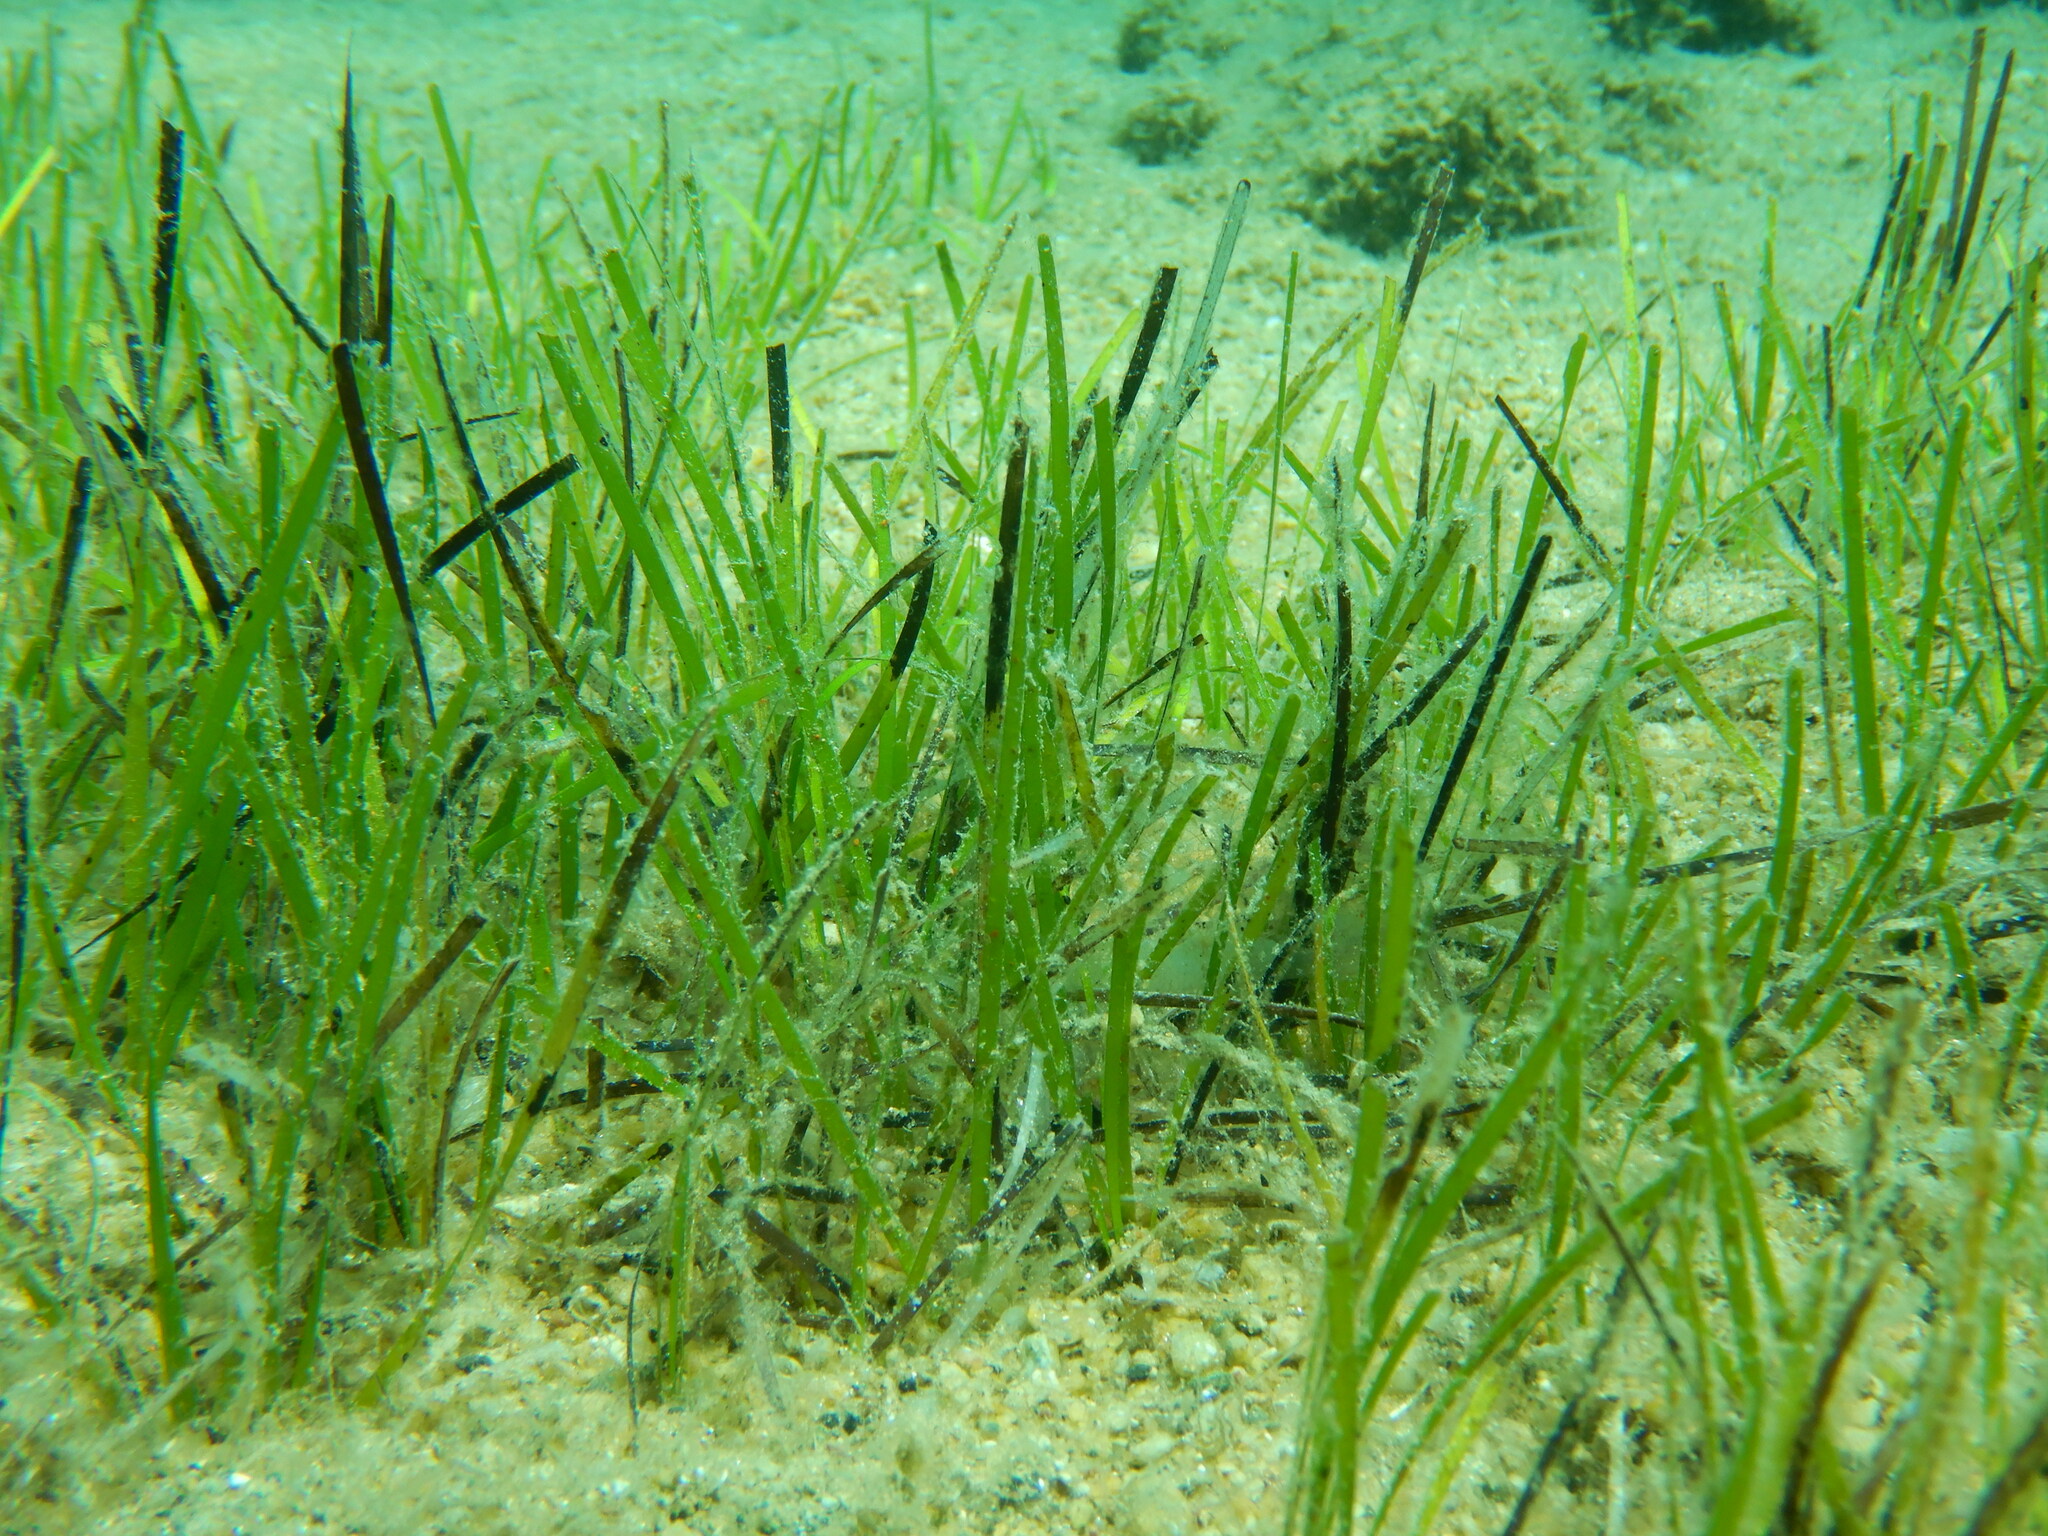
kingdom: Plantae
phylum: Tracheophyta
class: Liliopsida
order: Alismatales
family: Cymodoceaceae
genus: Cymodocea
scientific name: Cymodocea nodosa
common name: Slender seagrass
